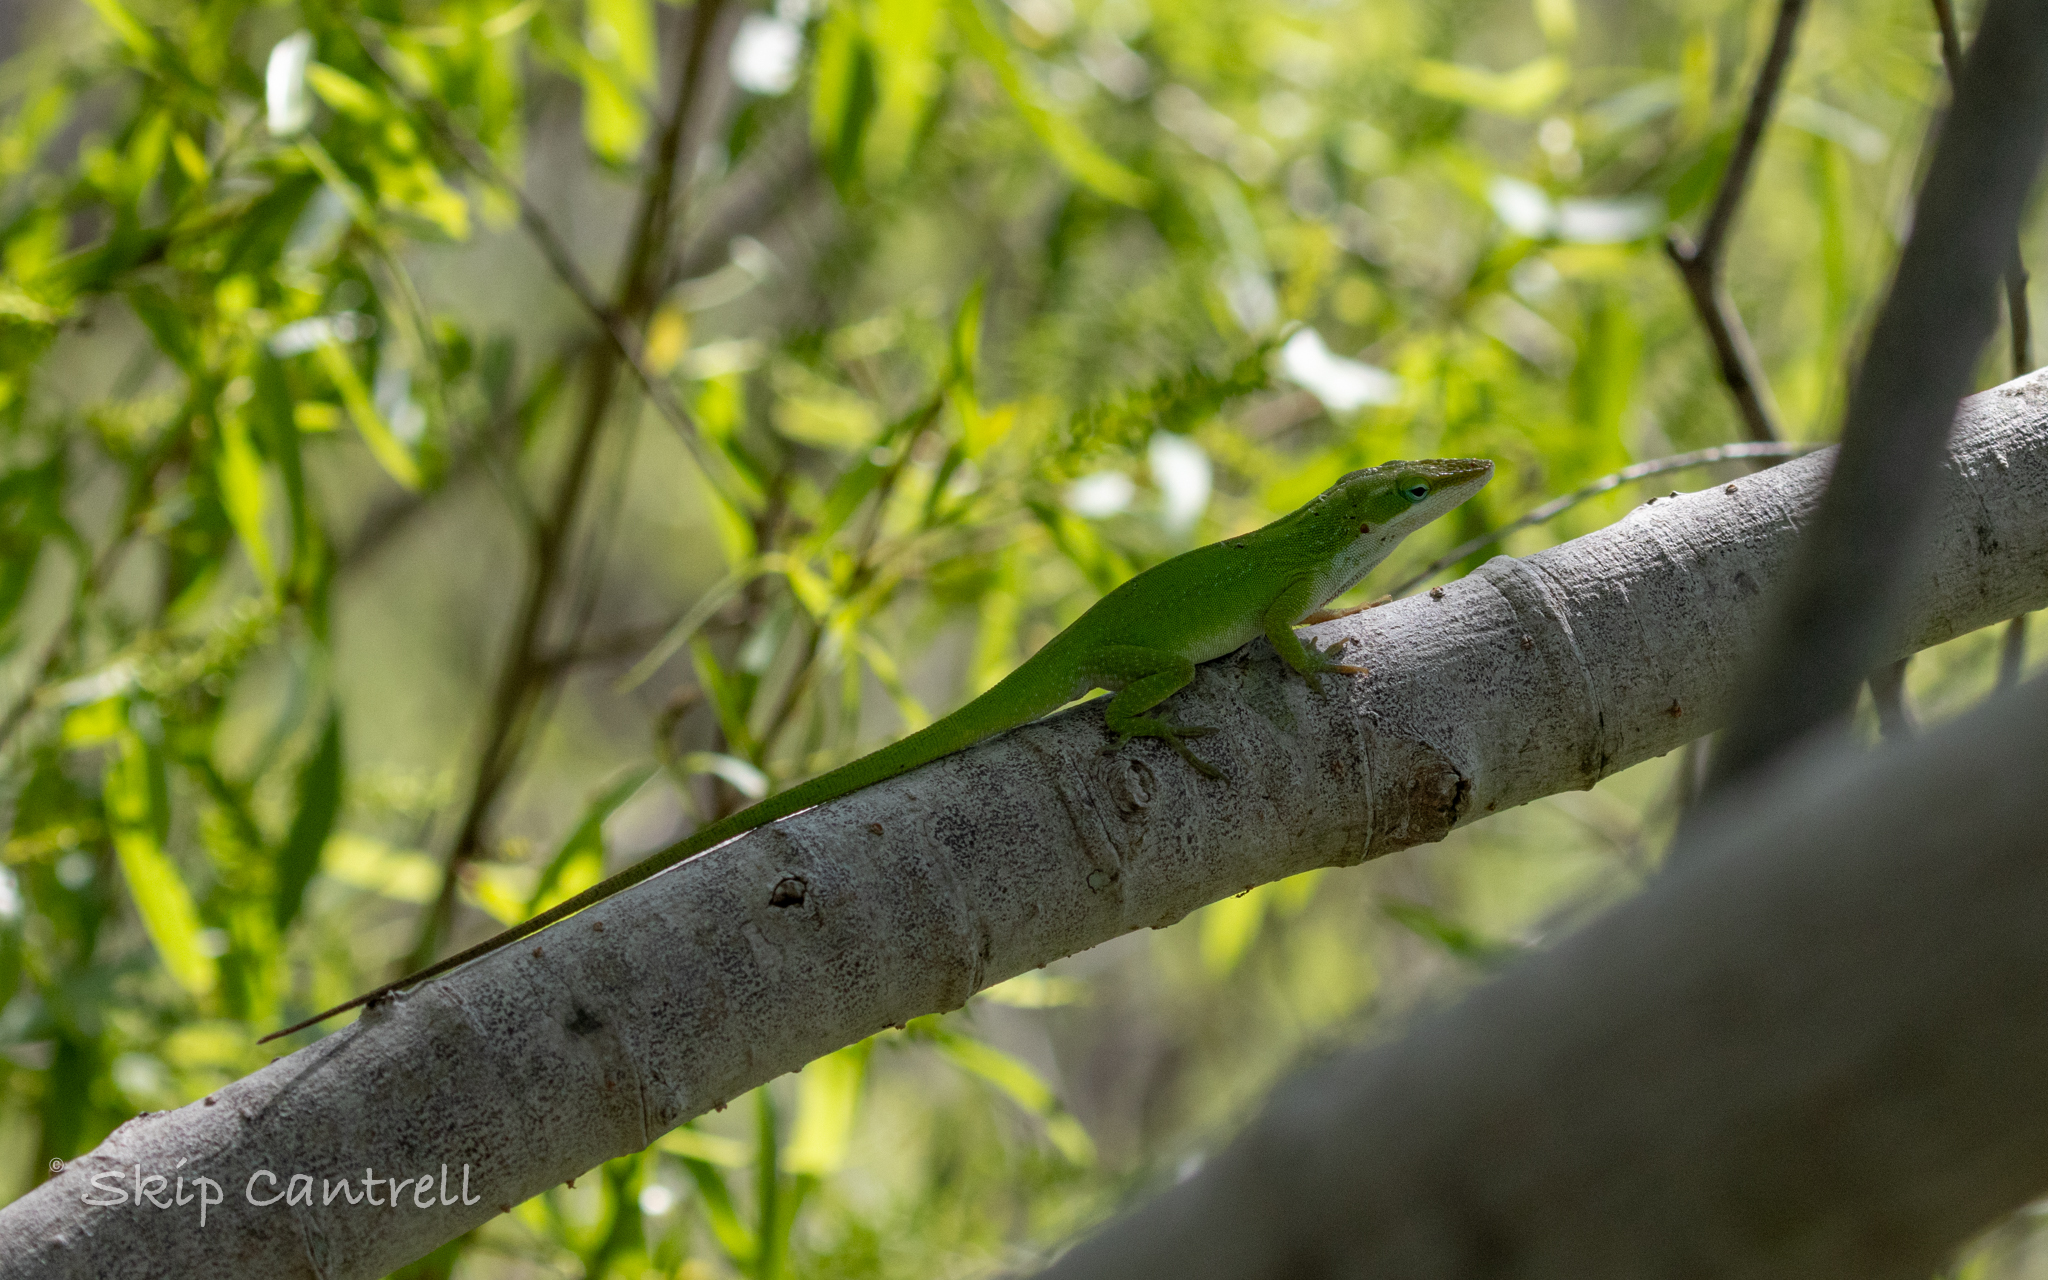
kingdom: Animalia
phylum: Chordata
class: Squamata
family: Dactyloidae
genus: Anolis
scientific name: Anolis carolinensis
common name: Green anole
